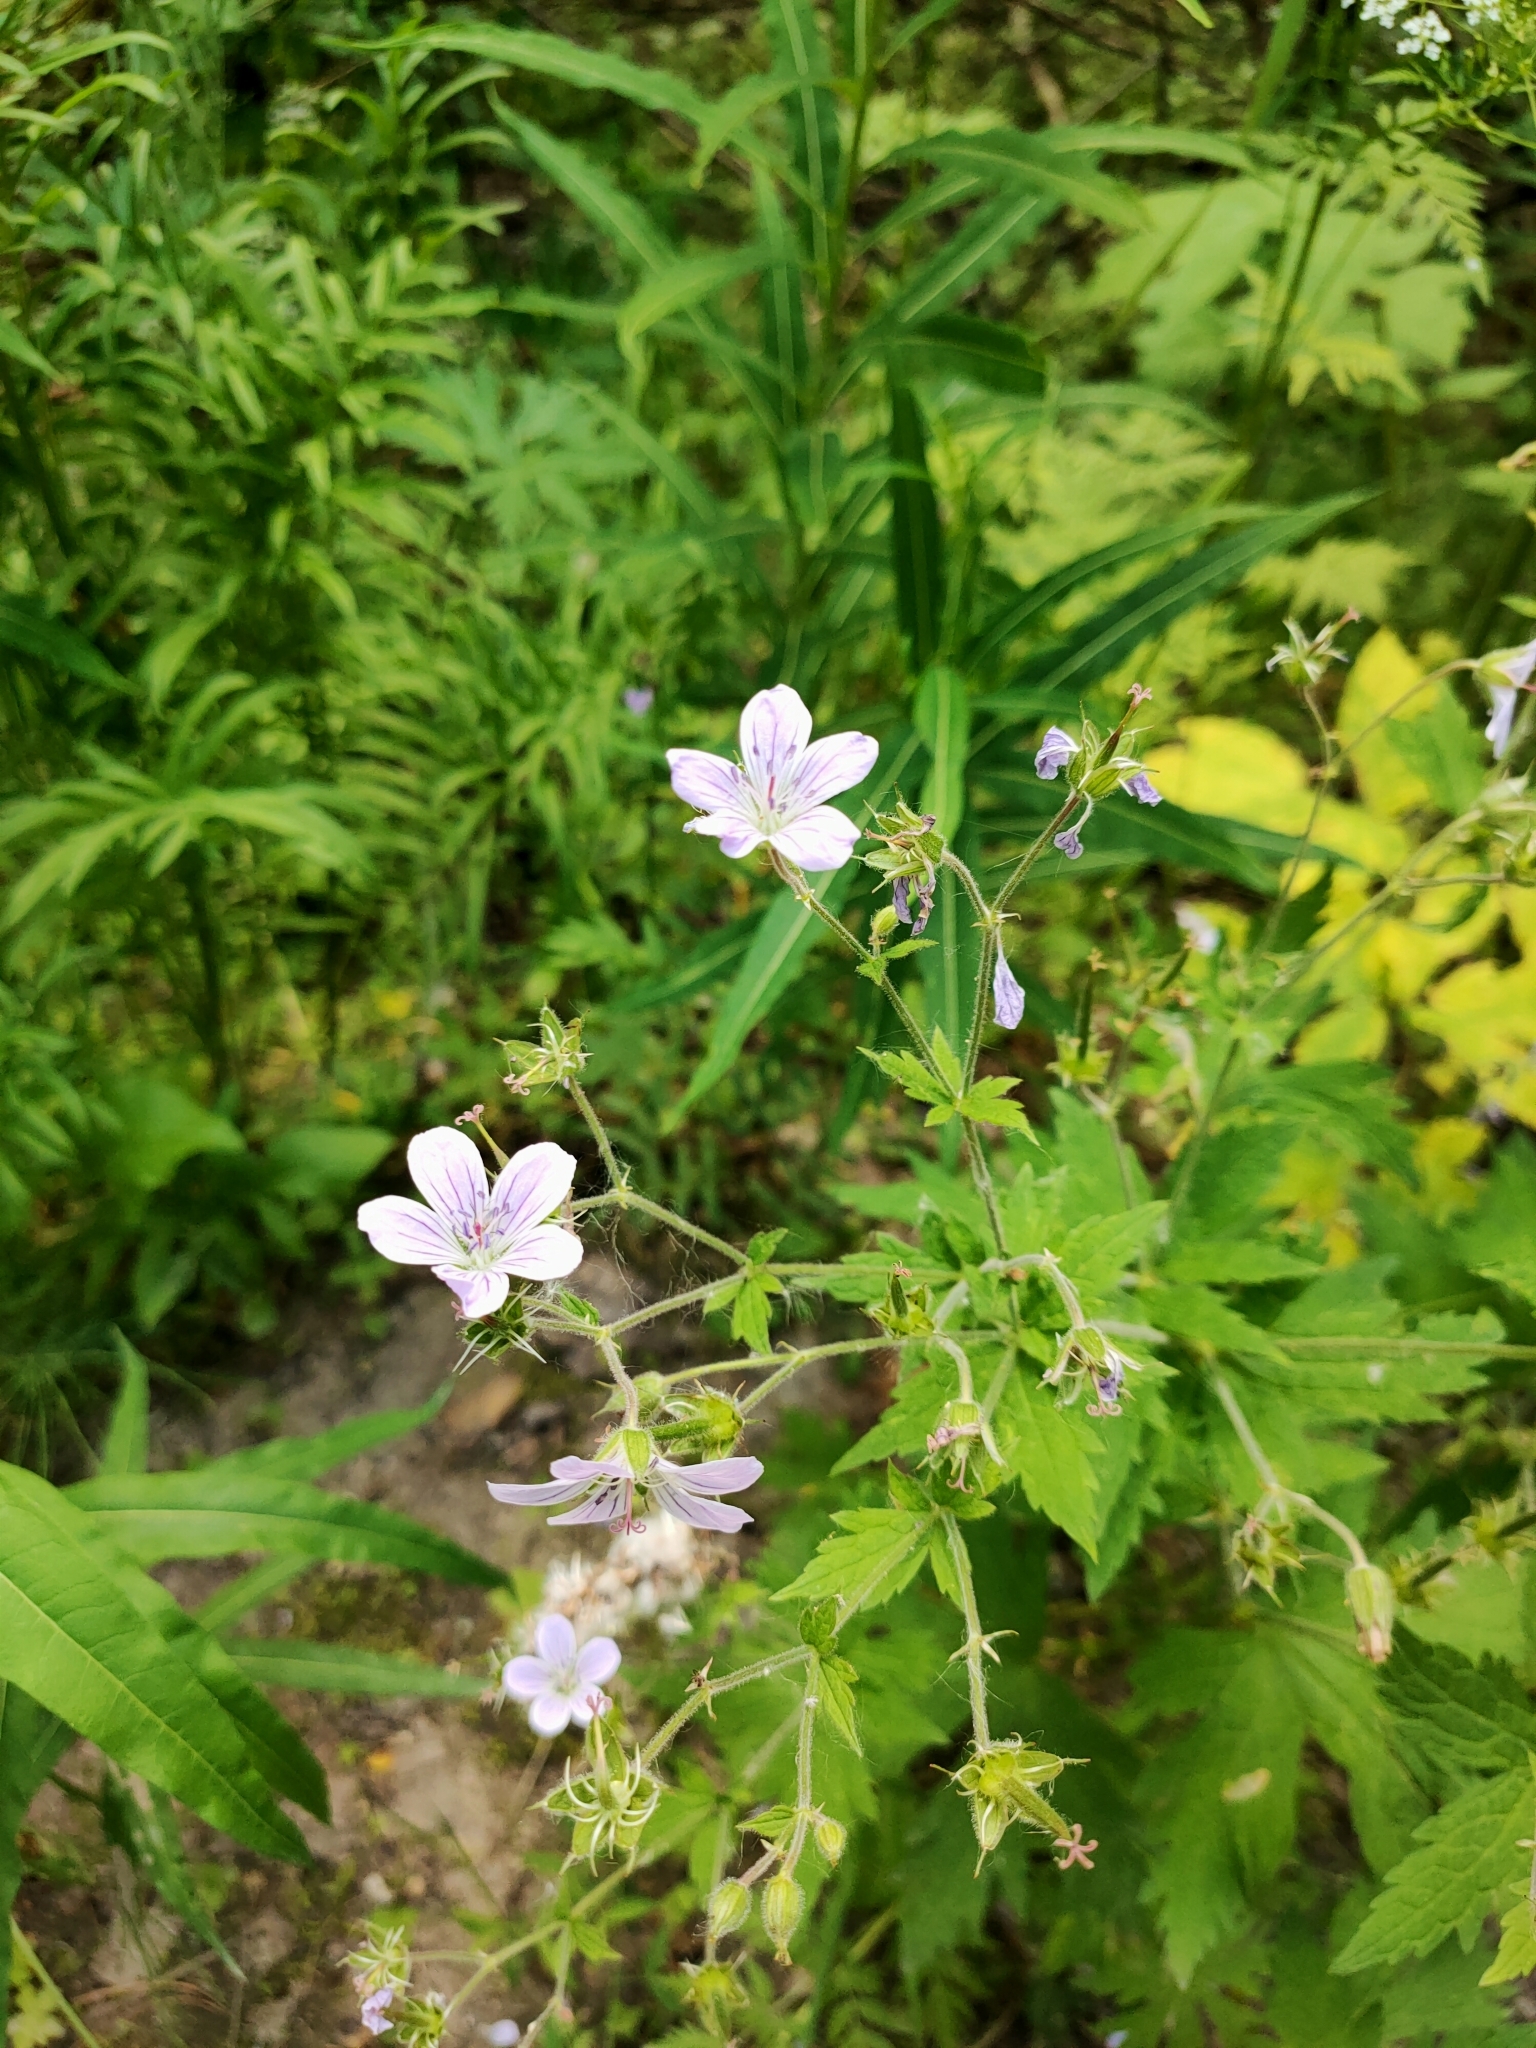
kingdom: Plantae
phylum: Tracheophyta
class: Magnoliopsida
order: Geraniales
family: Geraniaceae
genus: Geranium
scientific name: Geranium sylvaticum
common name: Wood crane's-bill
